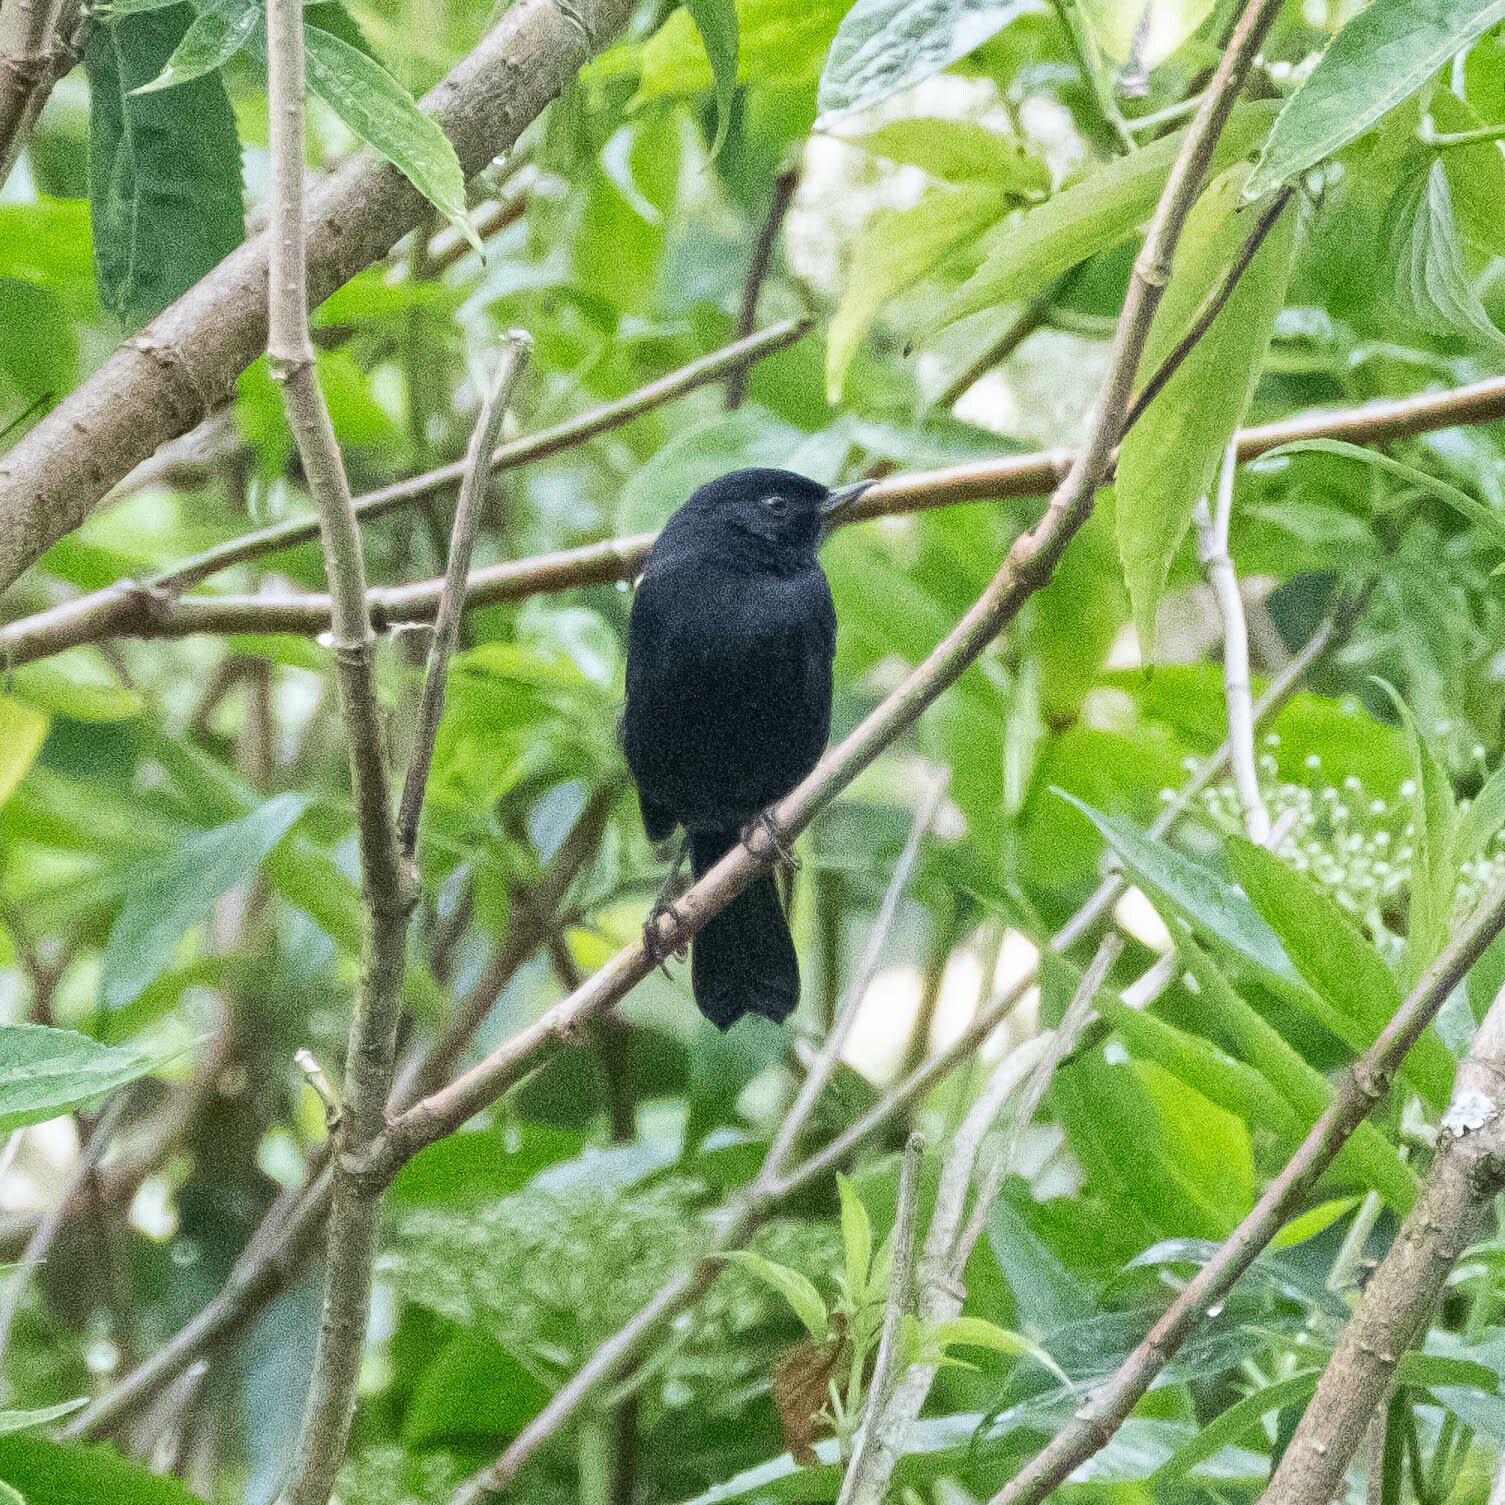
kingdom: Animalia
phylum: Chordata
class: Aves
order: Passeriformes
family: Thraupidae
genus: Diglossa
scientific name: Diglossa humeralis
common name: Black flowerpiercer
